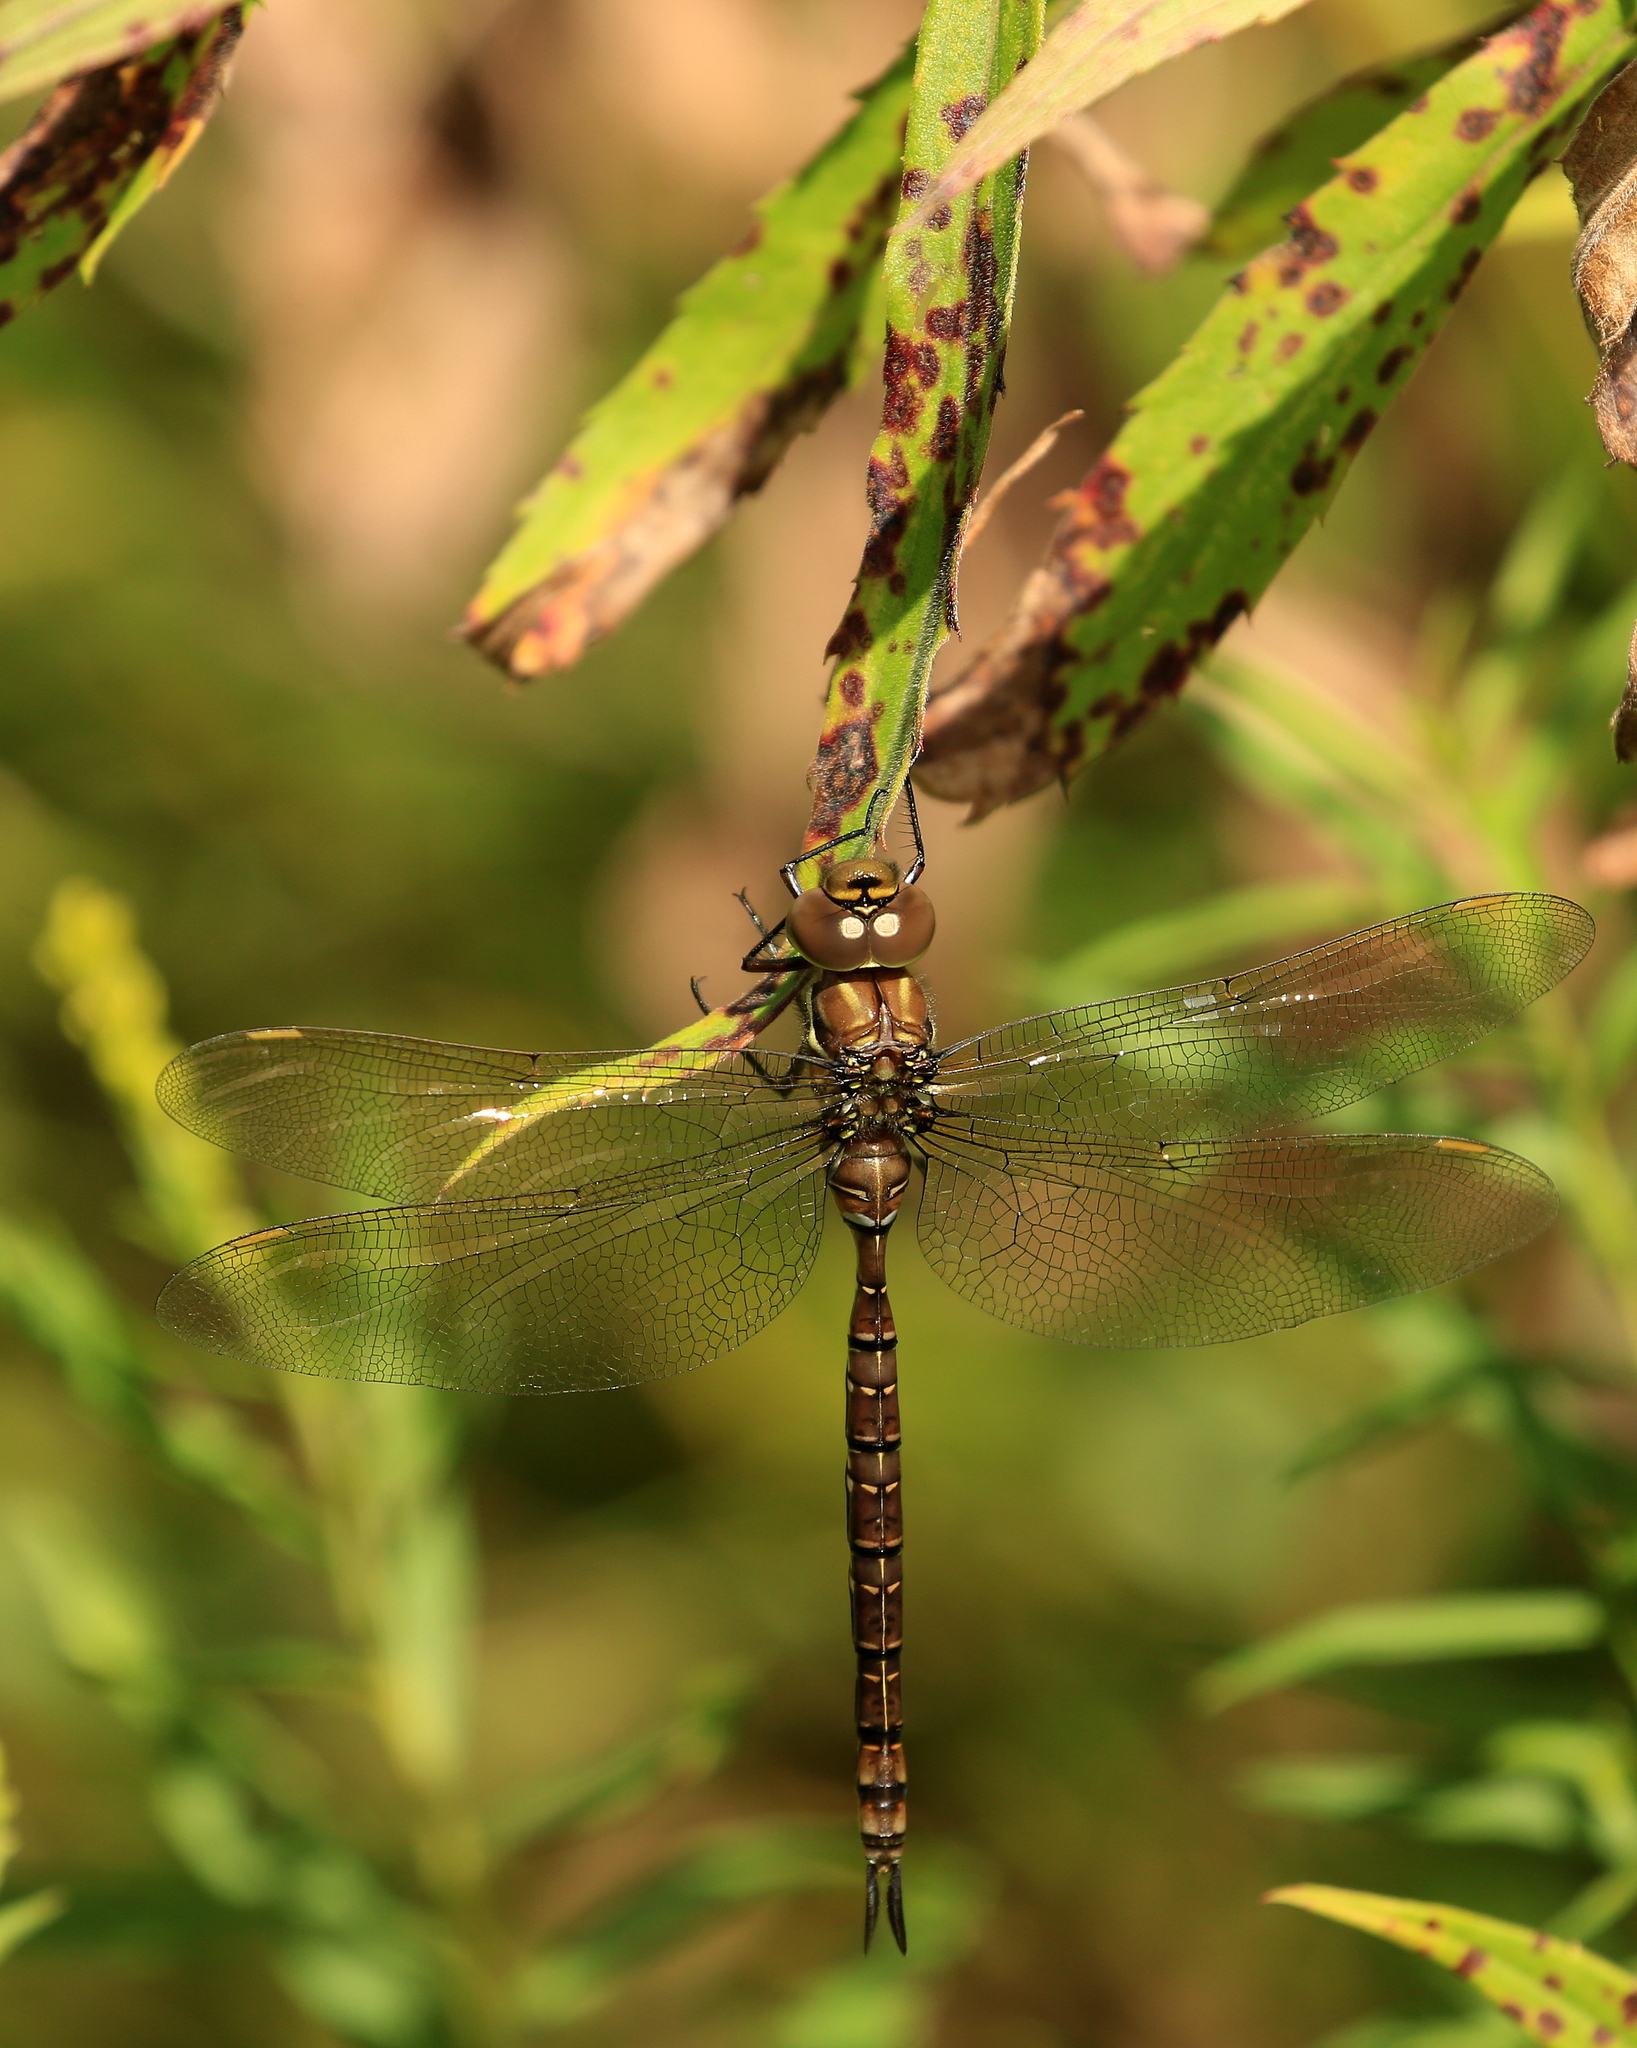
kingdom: Animalia
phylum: Arthropoda
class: Insecta
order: Odonata
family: Aeshnidae
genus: Aeshna
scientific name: Aeshna umbrosa
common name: Shadow darner
